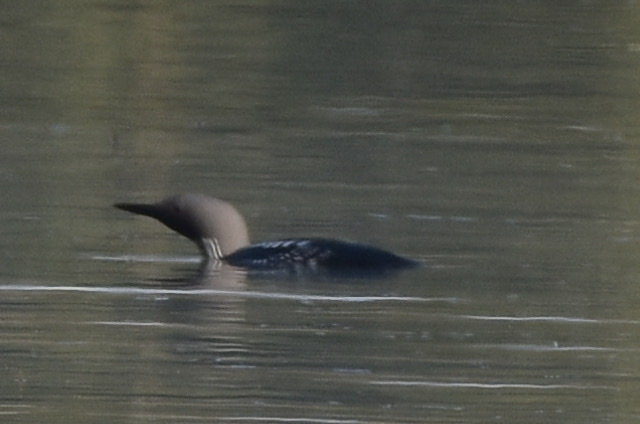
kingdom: Animalia
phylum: Chordata
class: Aves
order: Gaviiformes
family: Gaviidae
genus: Gavia
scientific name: Gavia arctica
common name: Black-throated loon
